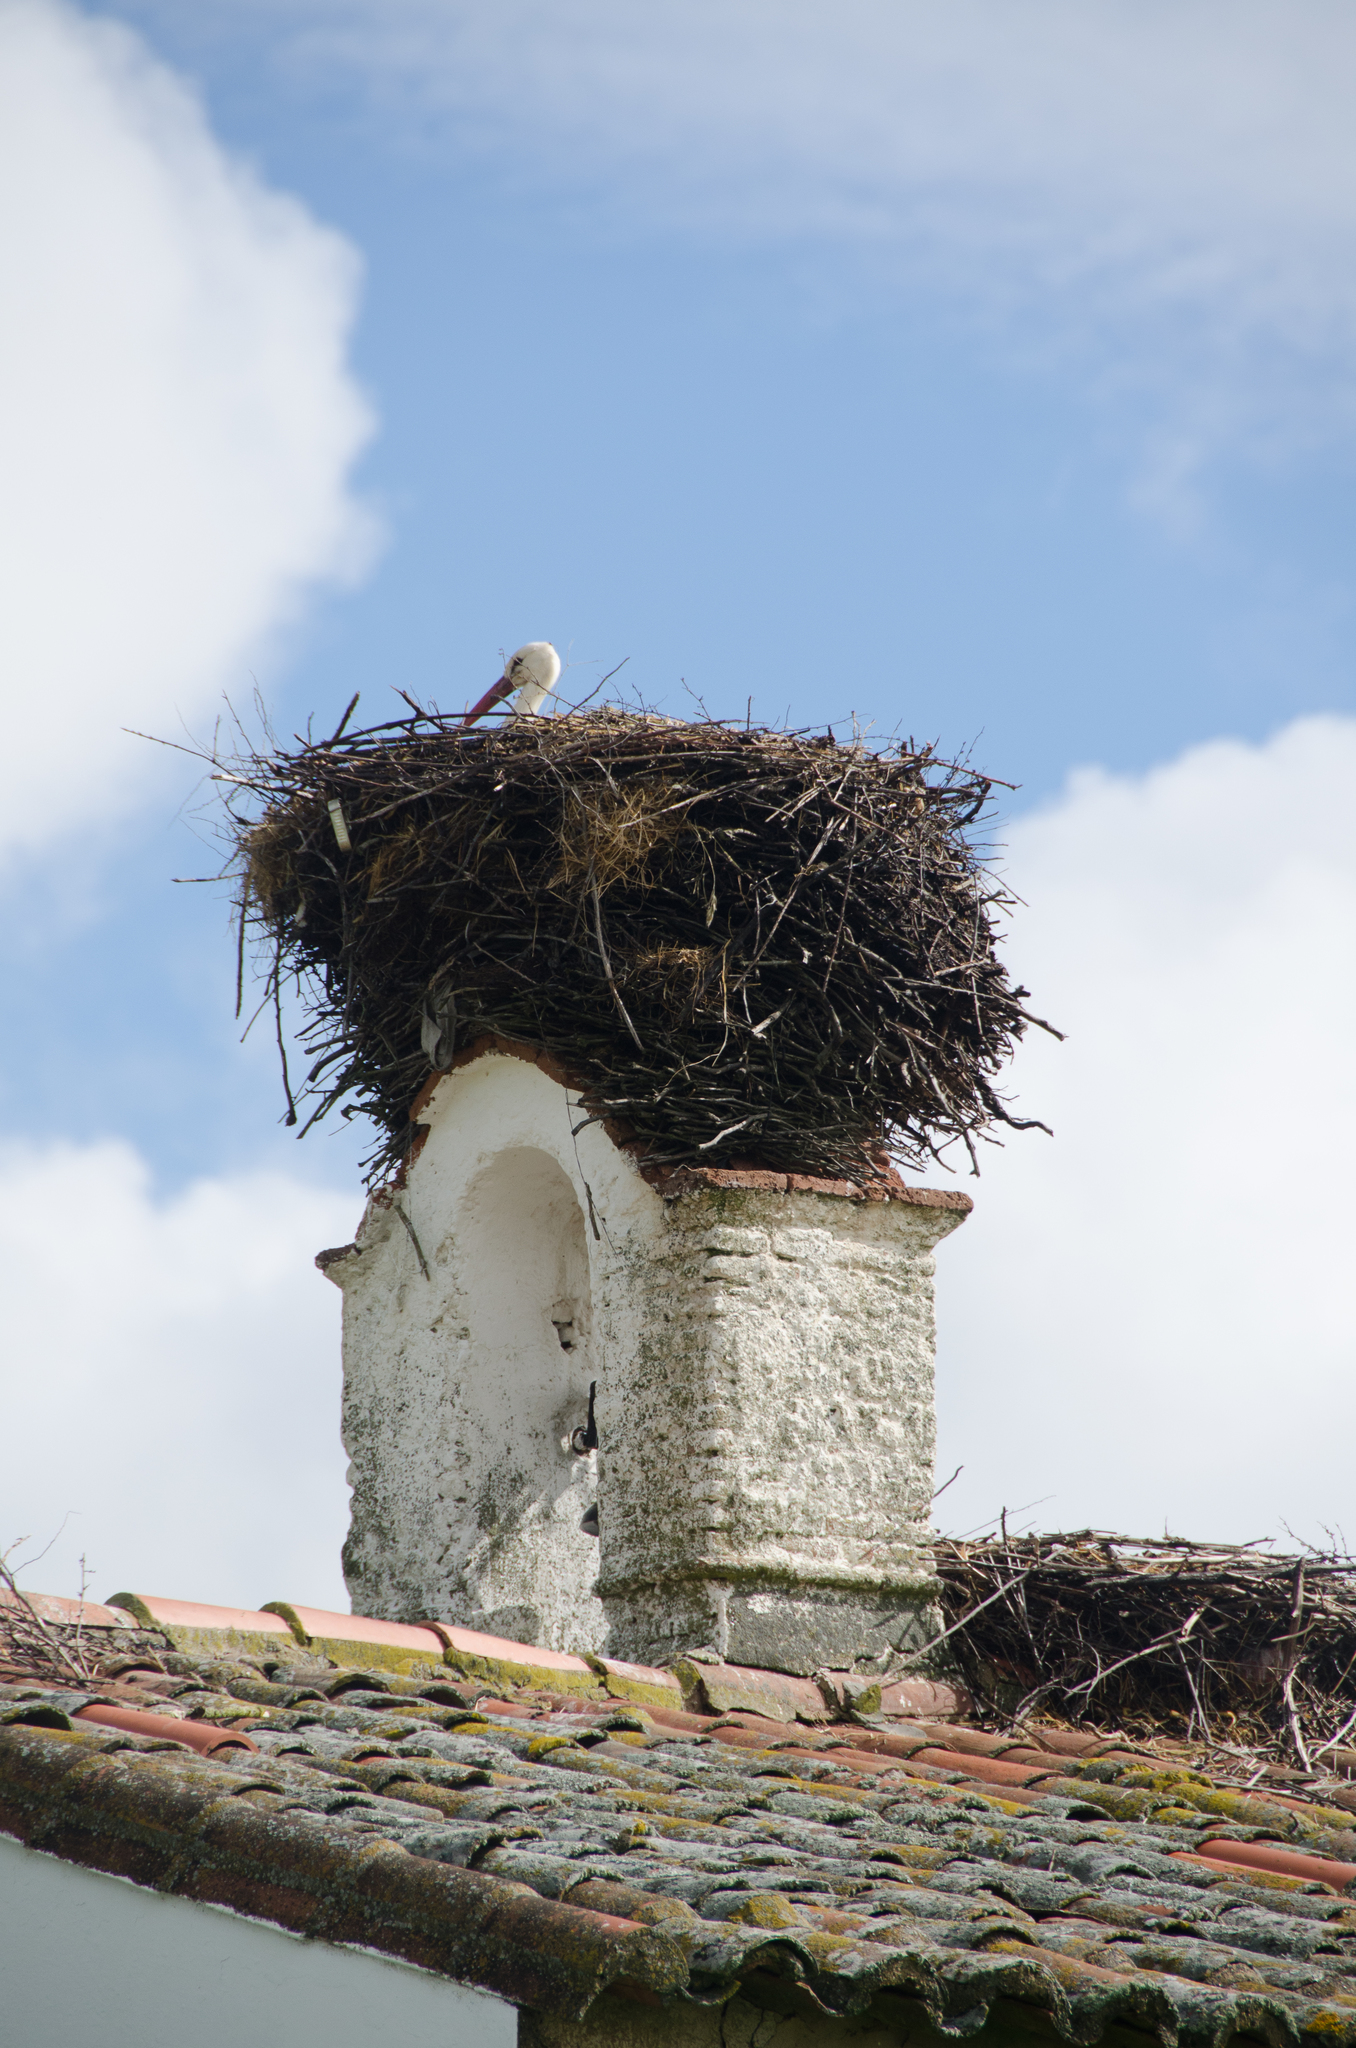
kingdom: Animalia
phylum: Chordata
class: Aves
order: Ciconiiformes
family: Ciconiidae
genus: Ciconia
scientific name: Ciconia ciconia
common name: White stork
